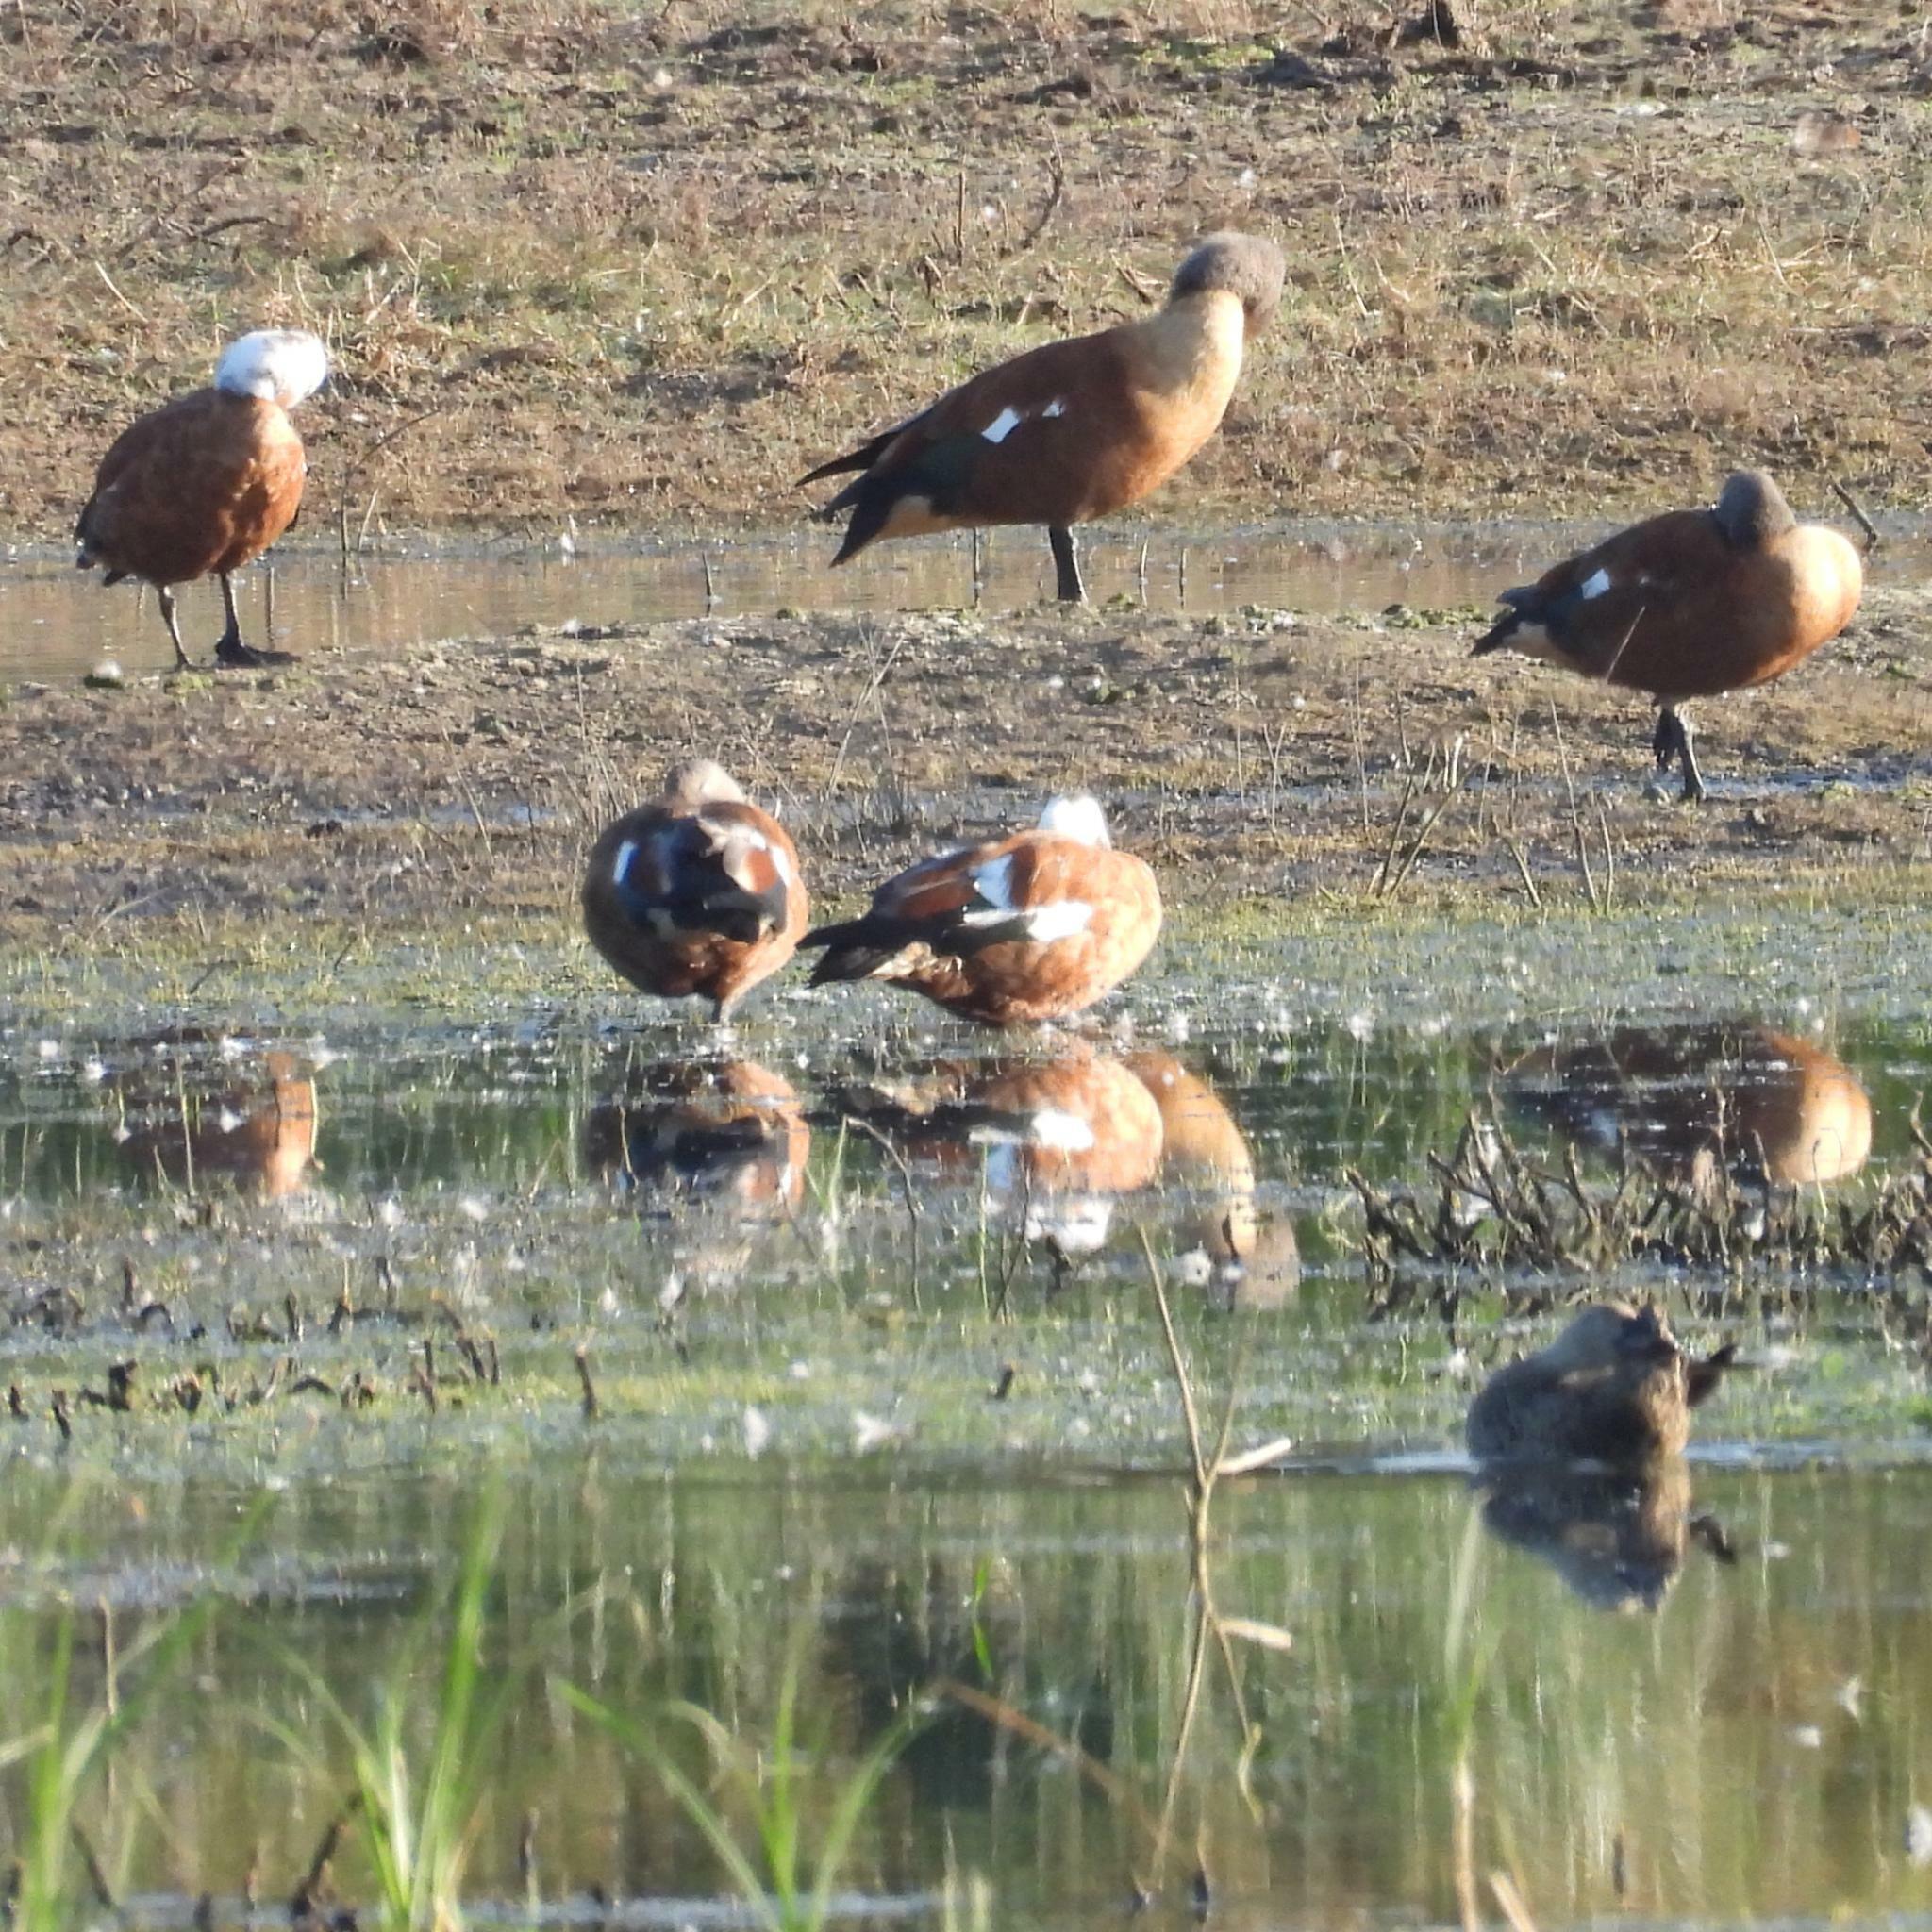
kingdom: Animalia
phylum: Chordata
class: Aves
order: Anseriformes
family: Anatidae
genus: Tadorna
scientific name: Tadorna cana
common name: South african shelduck
